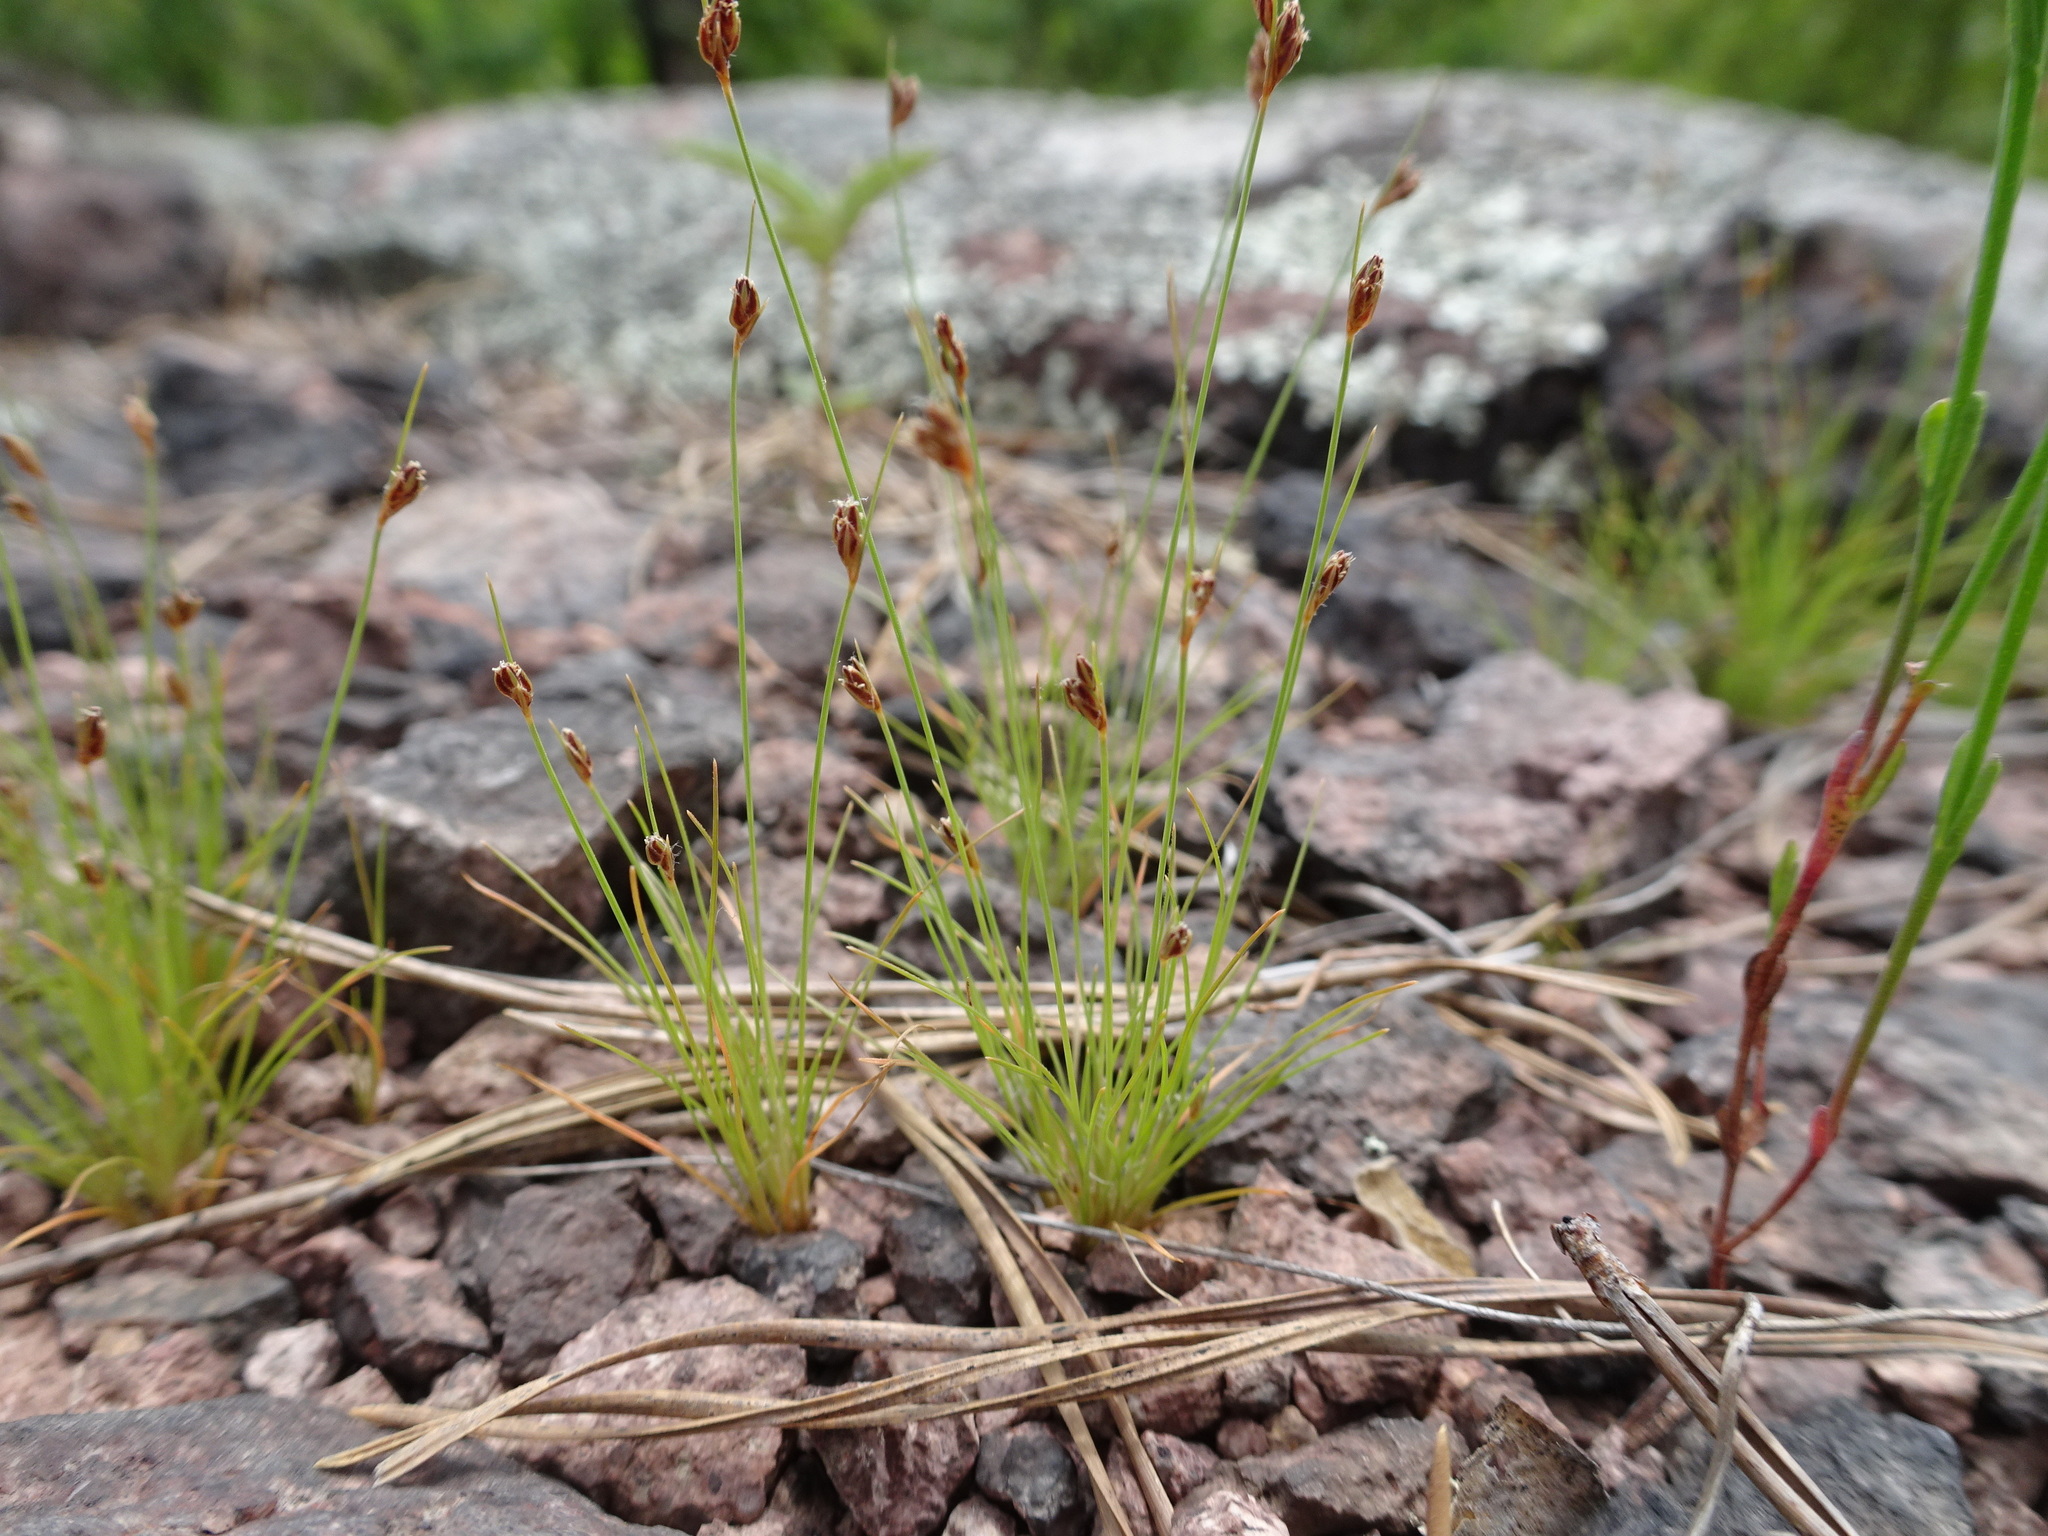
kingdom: Plantae
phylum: Tracheophyta
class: Liliopsida
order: Poales
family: Cyperaceae
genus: Bulbostylis
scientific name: Bulbostylis capillaris
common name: Densetuft hairsedge
